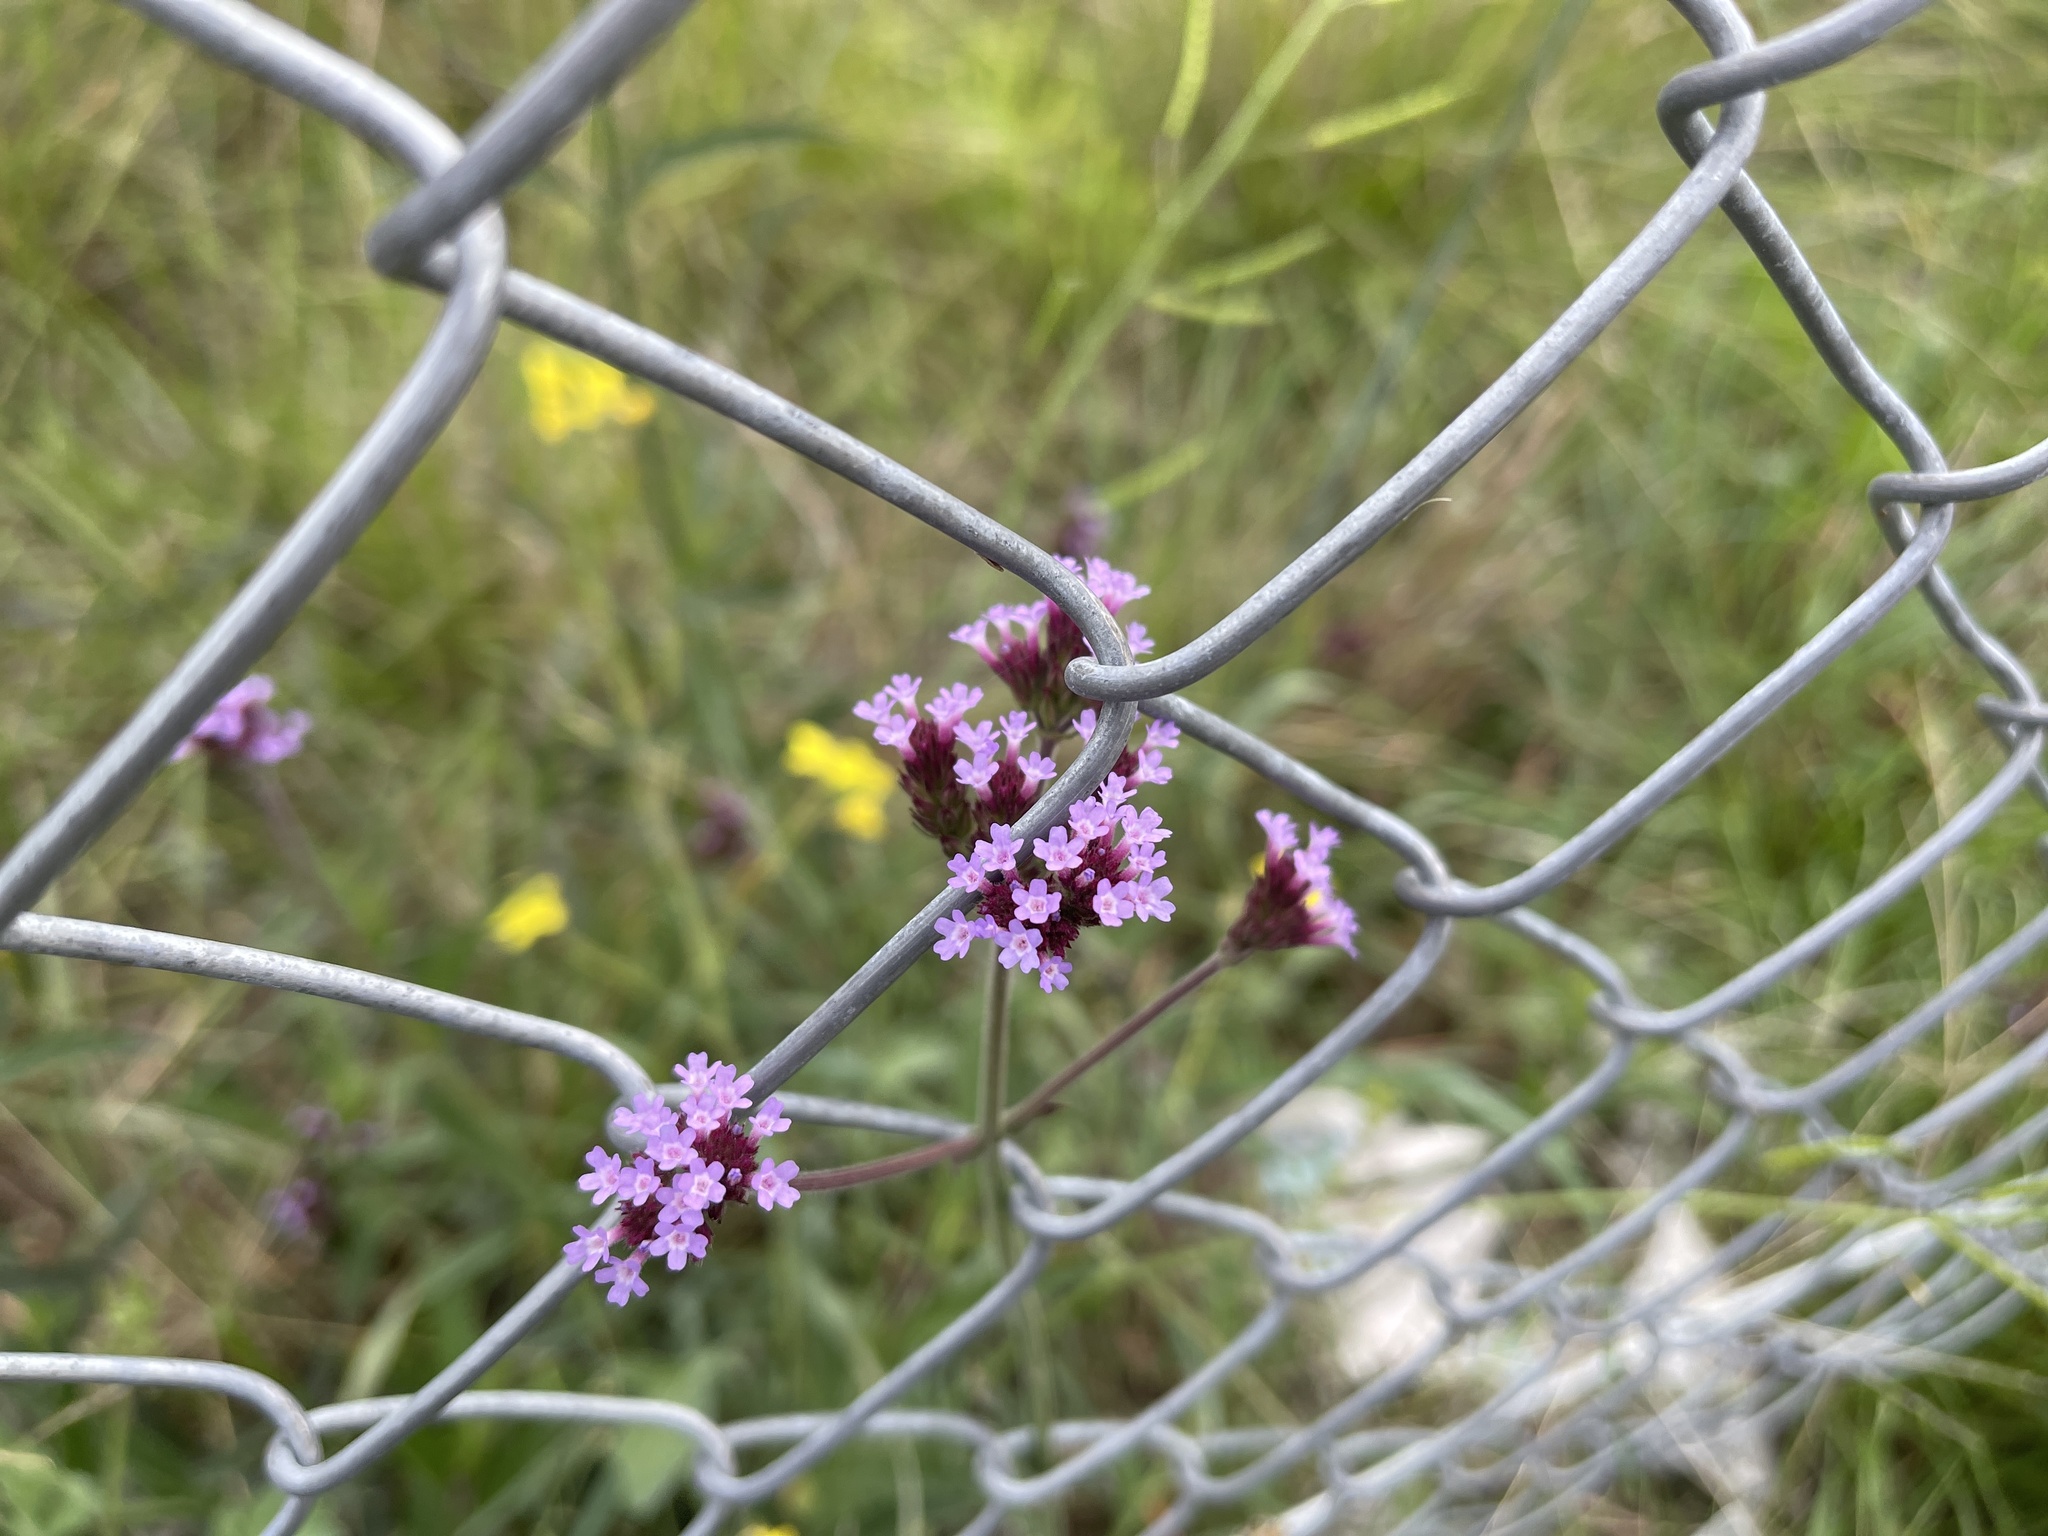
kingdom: Plantae
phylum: Tracheophyta
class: Magnoliopsida
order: Lamiales
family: Verbenaceae
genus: Verbena
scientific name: Verbena bonariensis
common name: Purpletop vervain
